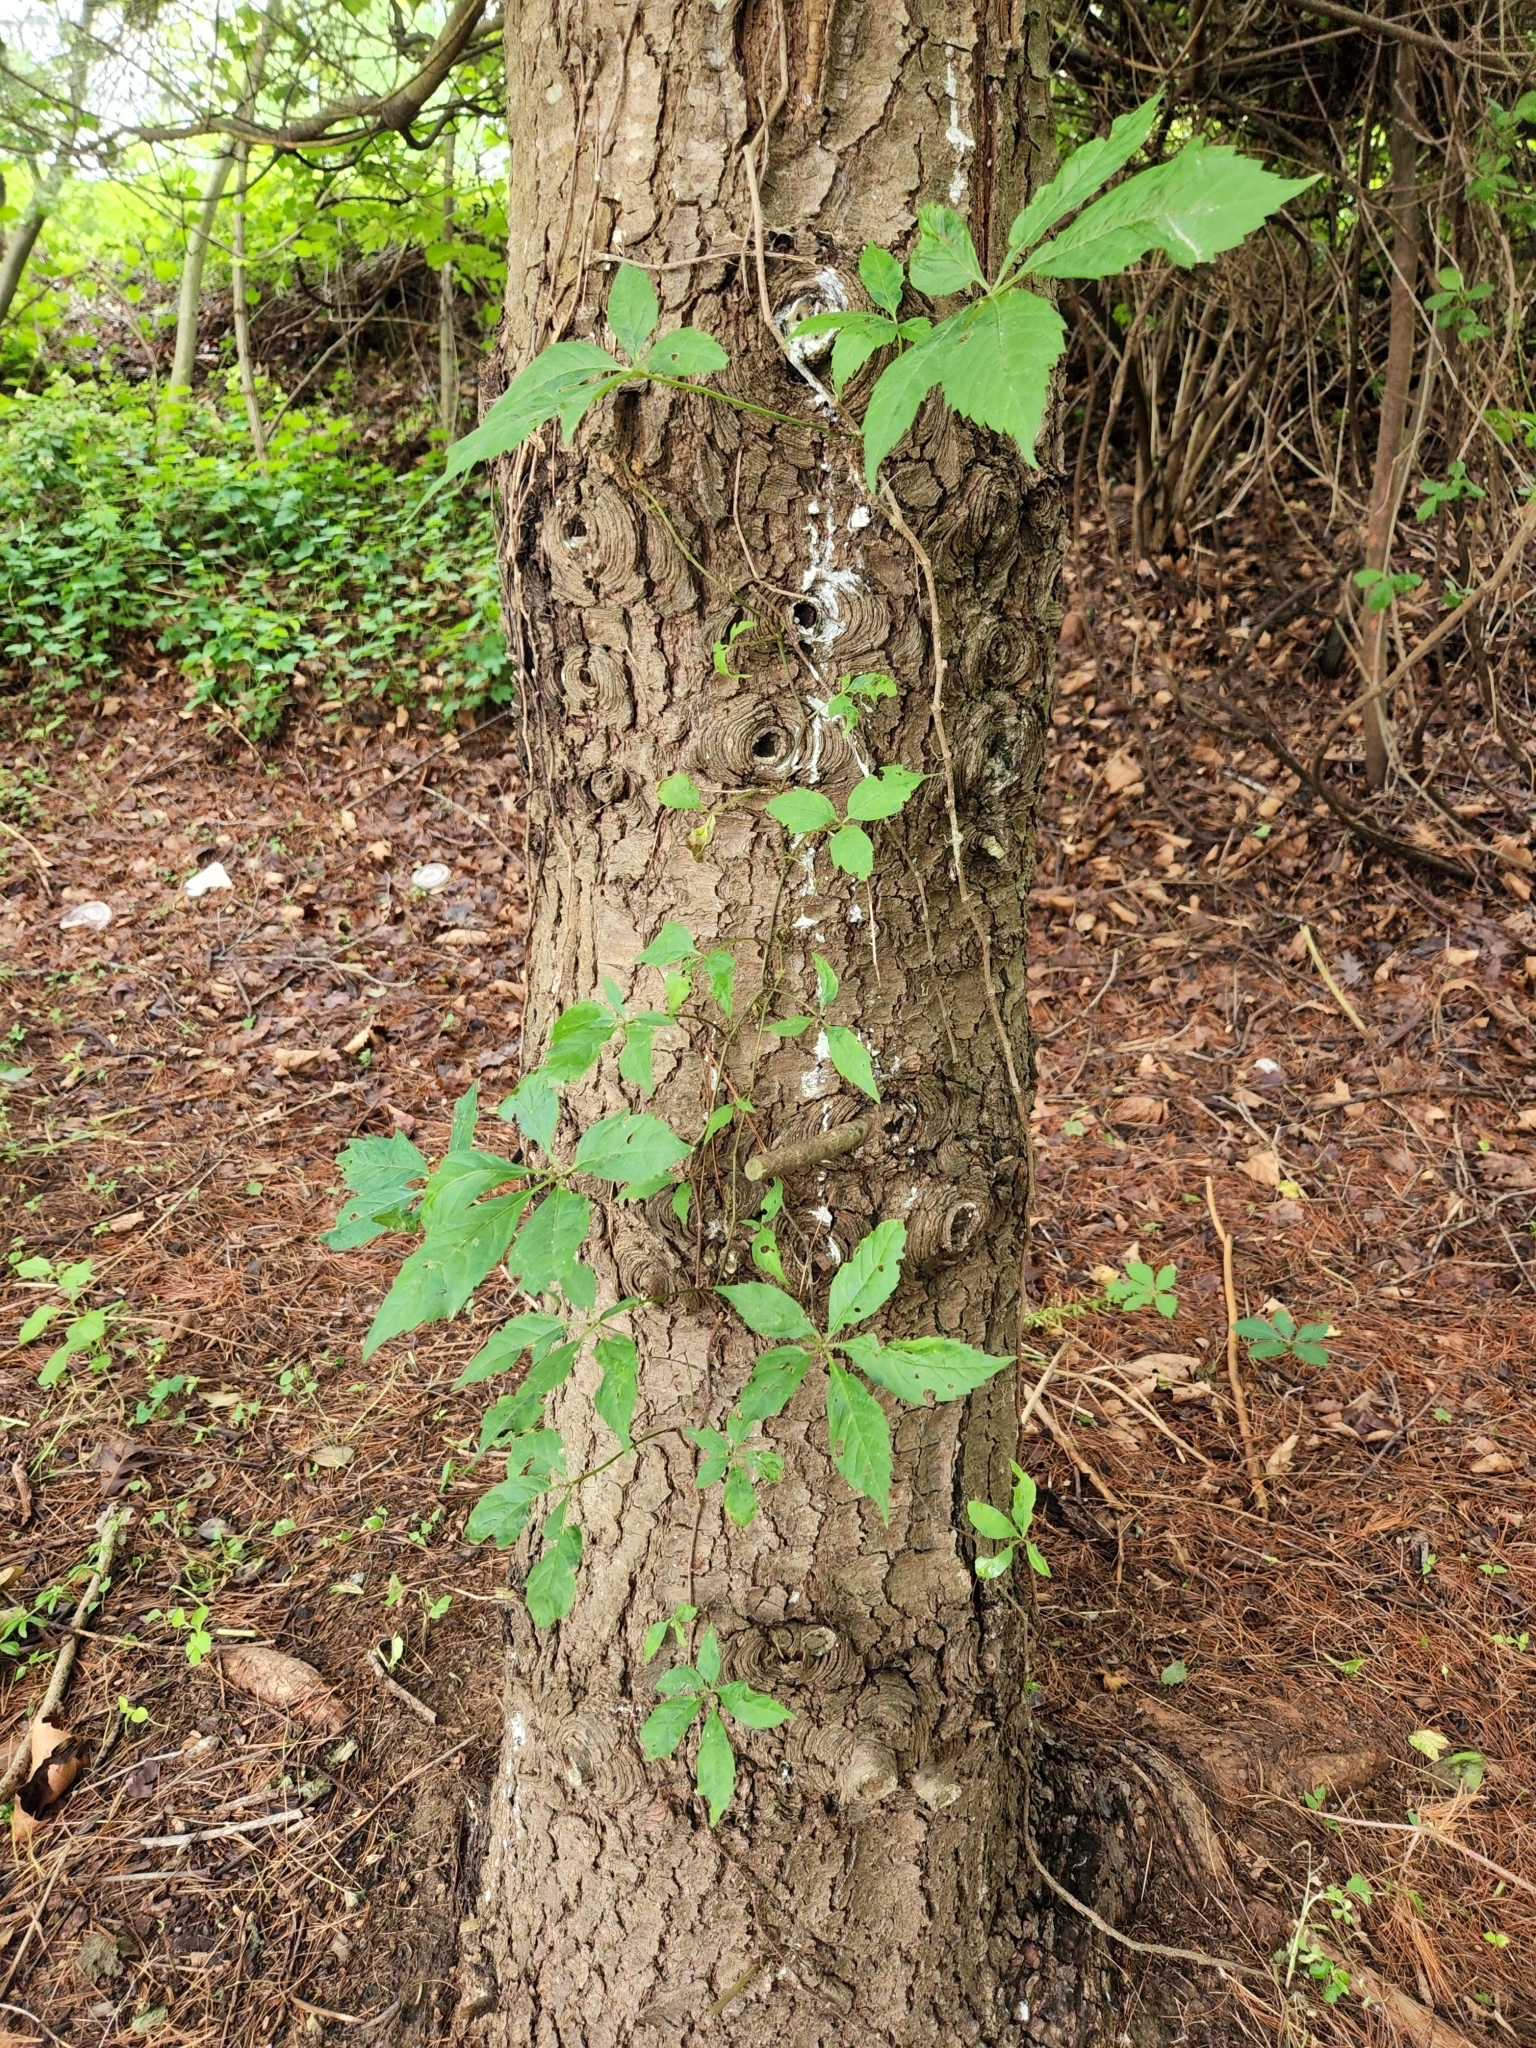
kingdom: Plantae
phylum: Tracheophyta
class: Magnoliopsida
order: Vitales
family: Vitaceae
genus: Parthenocissus
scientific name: Parthenocissus quinquefolia
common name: Virginia-creeper
